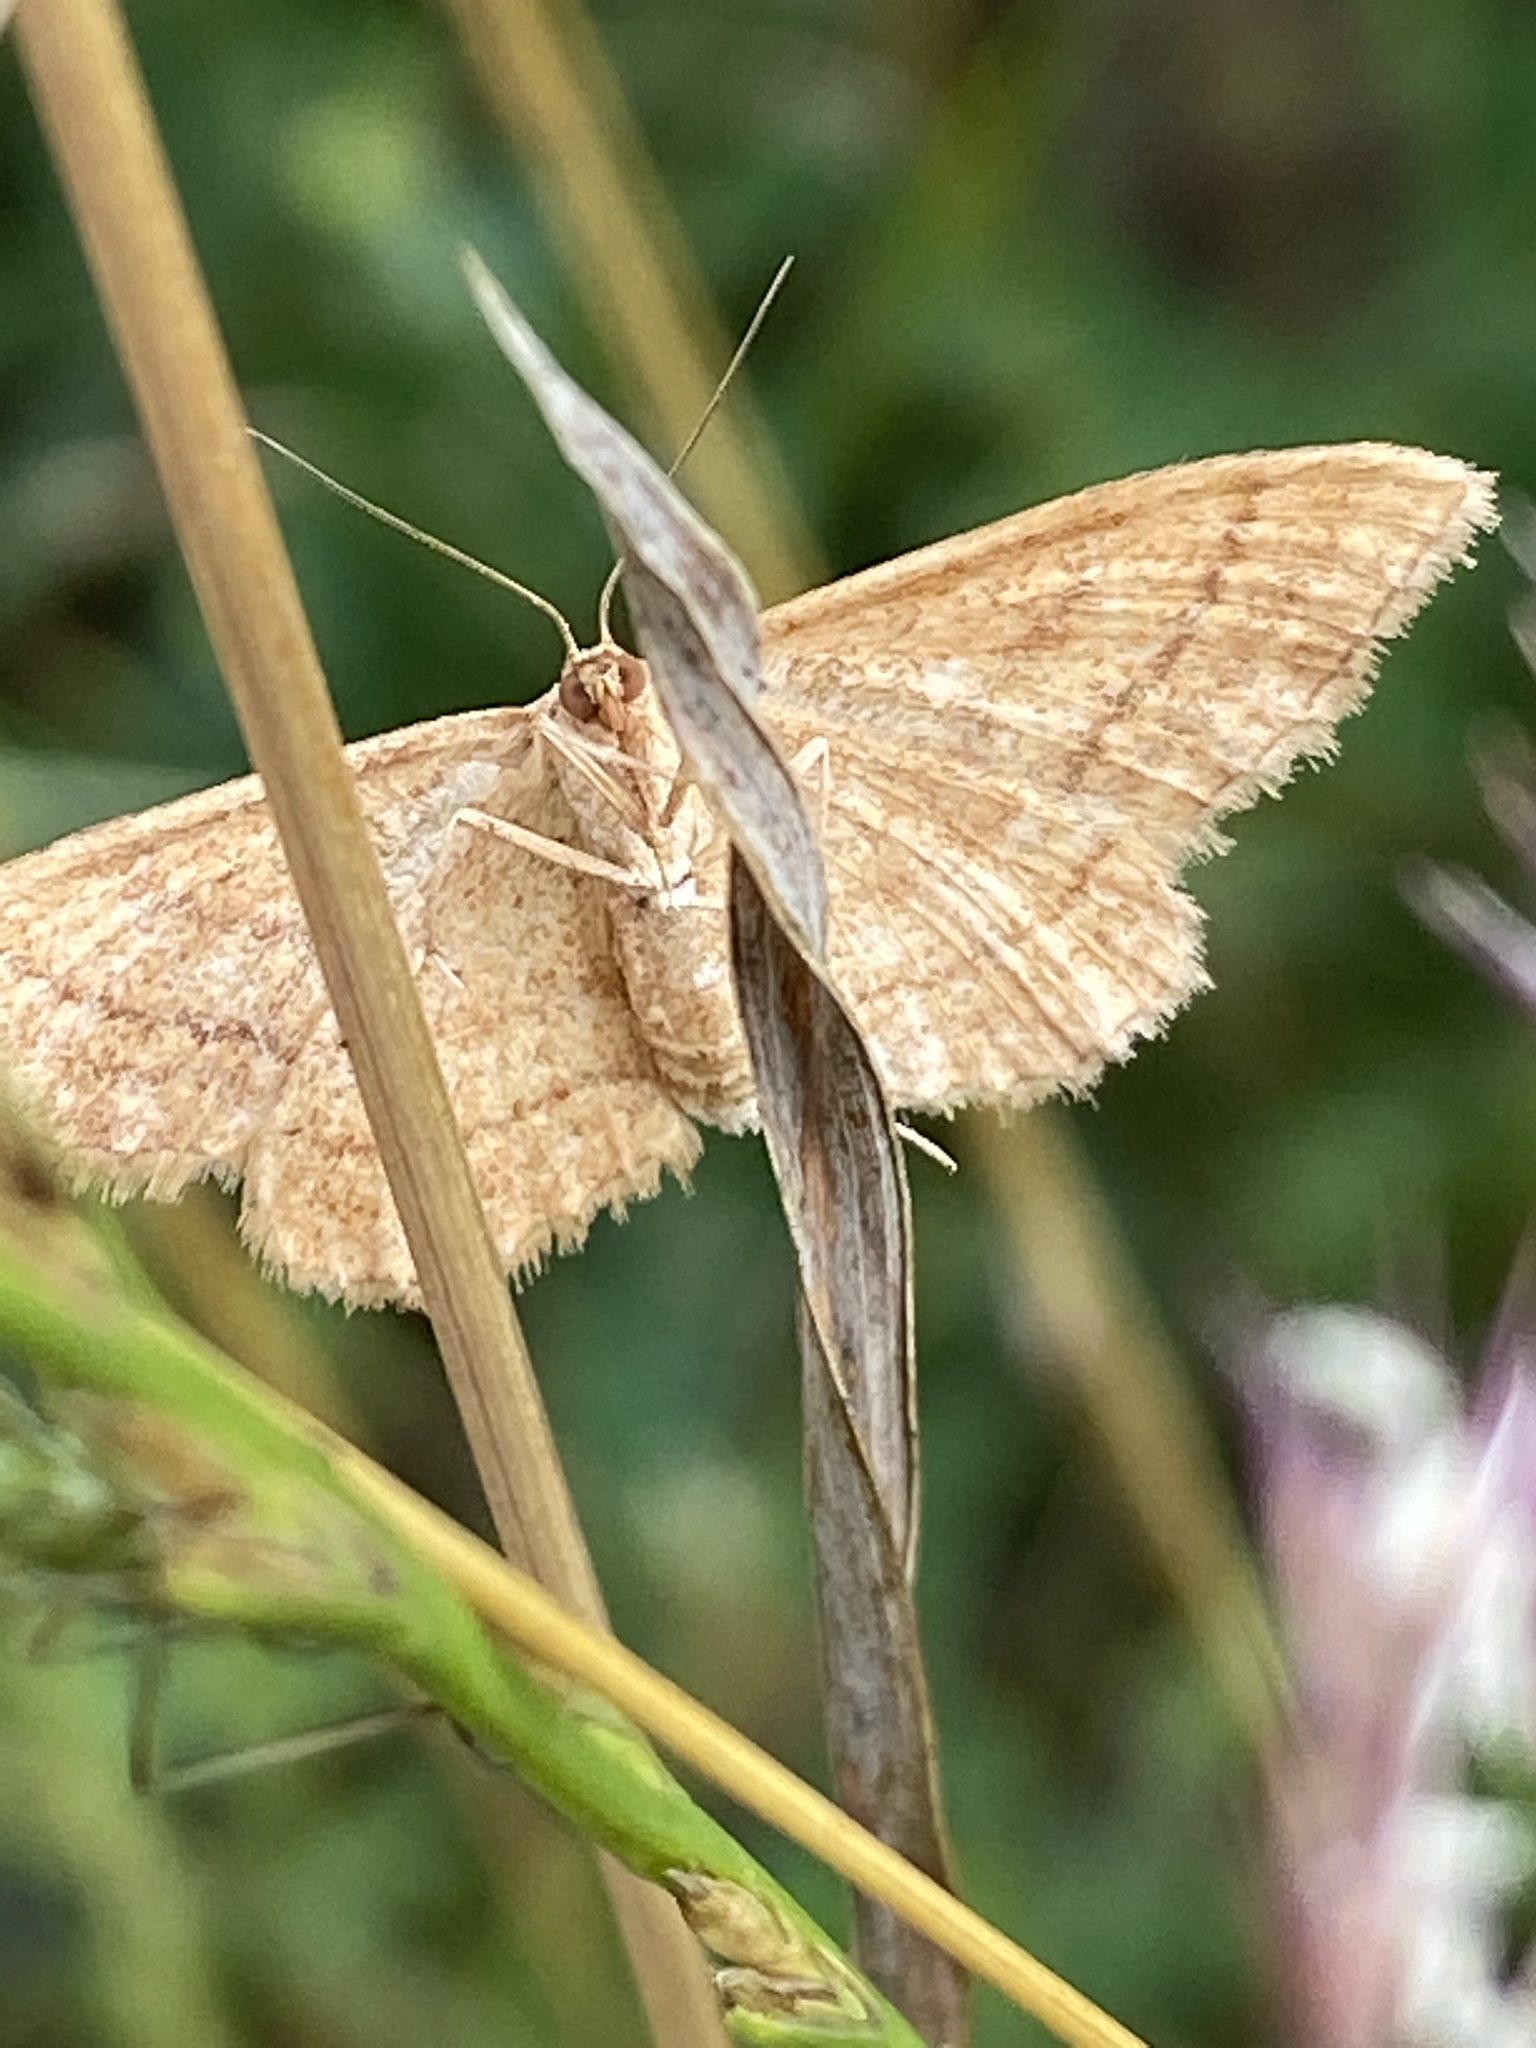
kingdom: Animalia
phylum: Arthropoda
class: Insecta
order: Lepidoptera
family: Geometridae
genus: Idaea
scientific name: Idaea ochrata
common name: Bright wave
